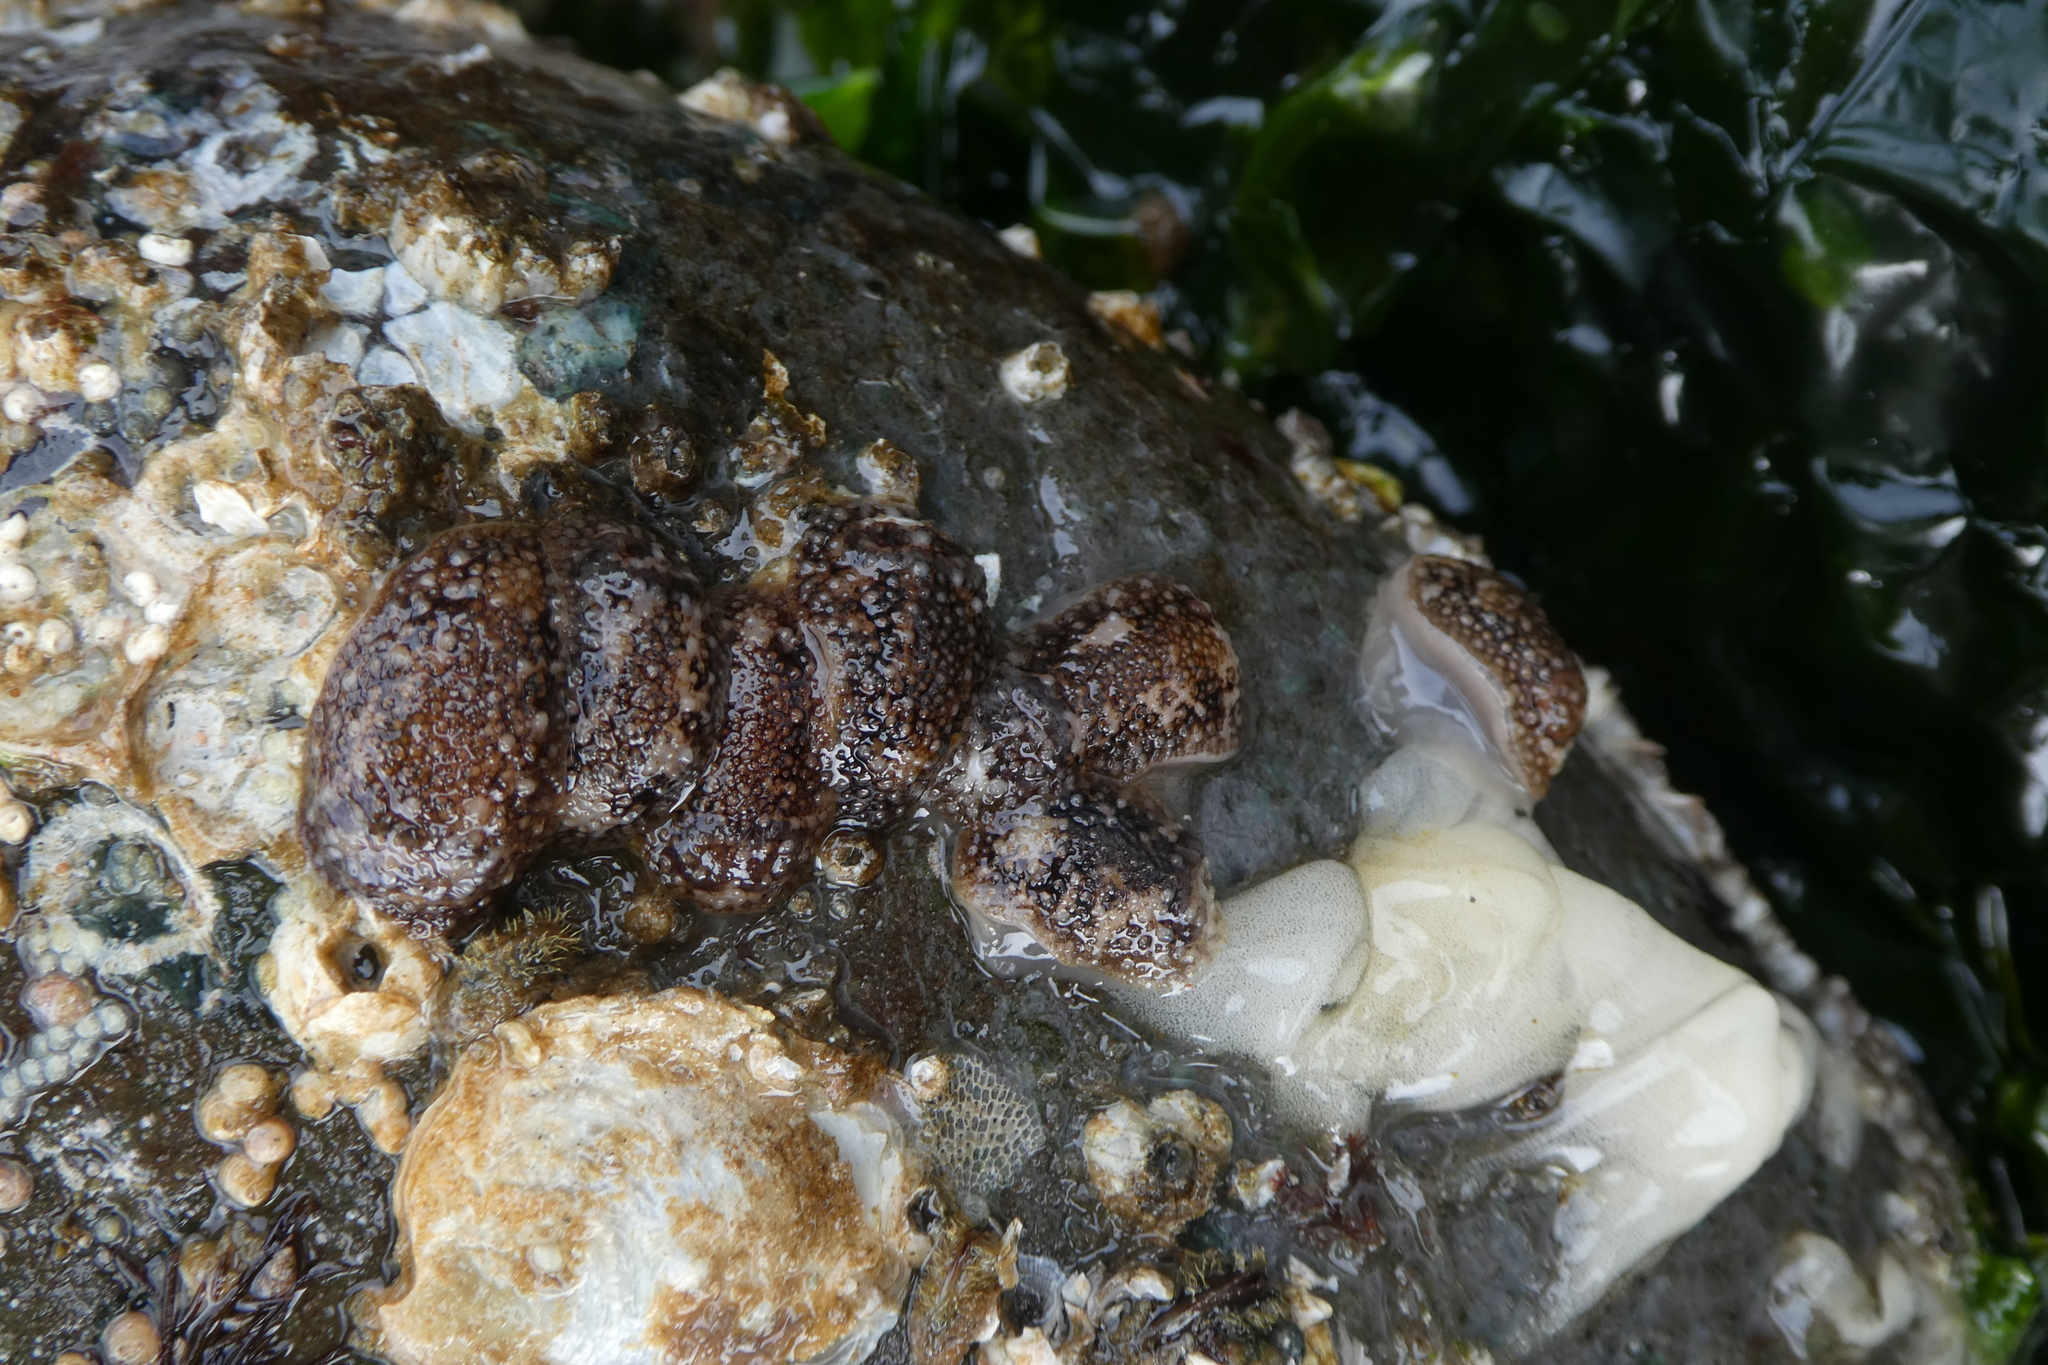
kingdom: Animalia
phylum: Mollusca
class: Gastropoda
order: Nudibranchia
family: Onchidorididae
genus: Onchidoris
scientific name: Onchidoris bilamellata
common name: Barnacle-eating onchidoris
